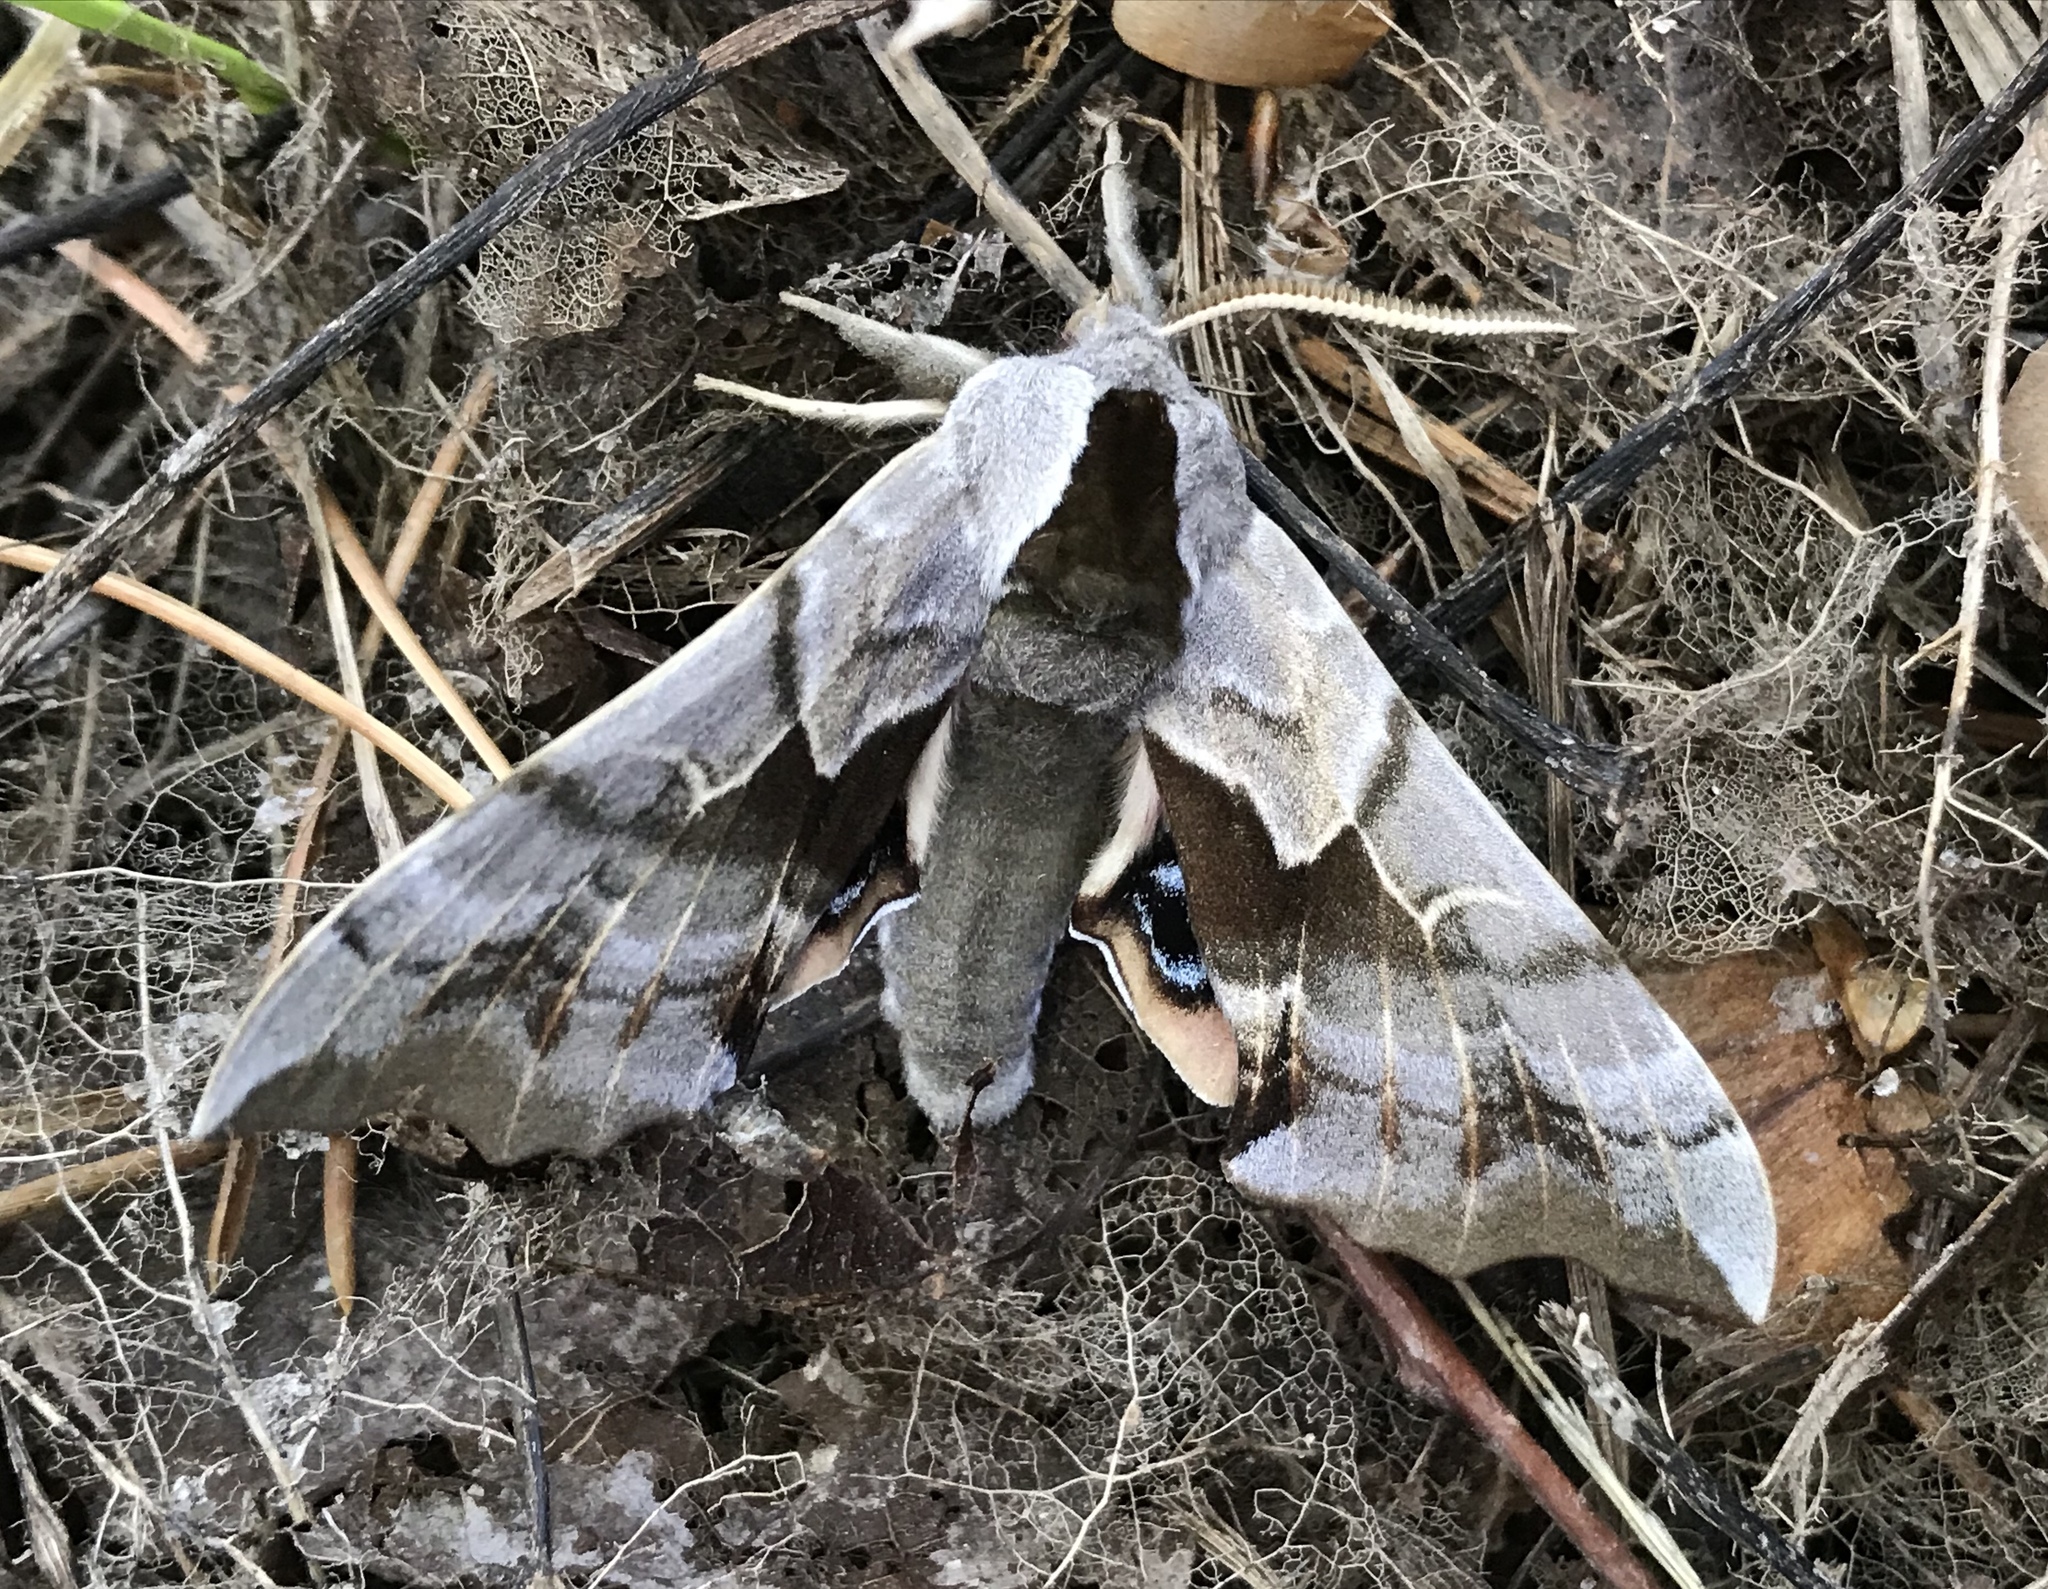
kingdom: Animalia
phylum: Arthropoda
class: Insecta
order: Lepidoptera
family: Sphingidae
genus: Smerinthus
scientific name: Smerinthus cerisyi
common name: Cerisy's sphinx moth
